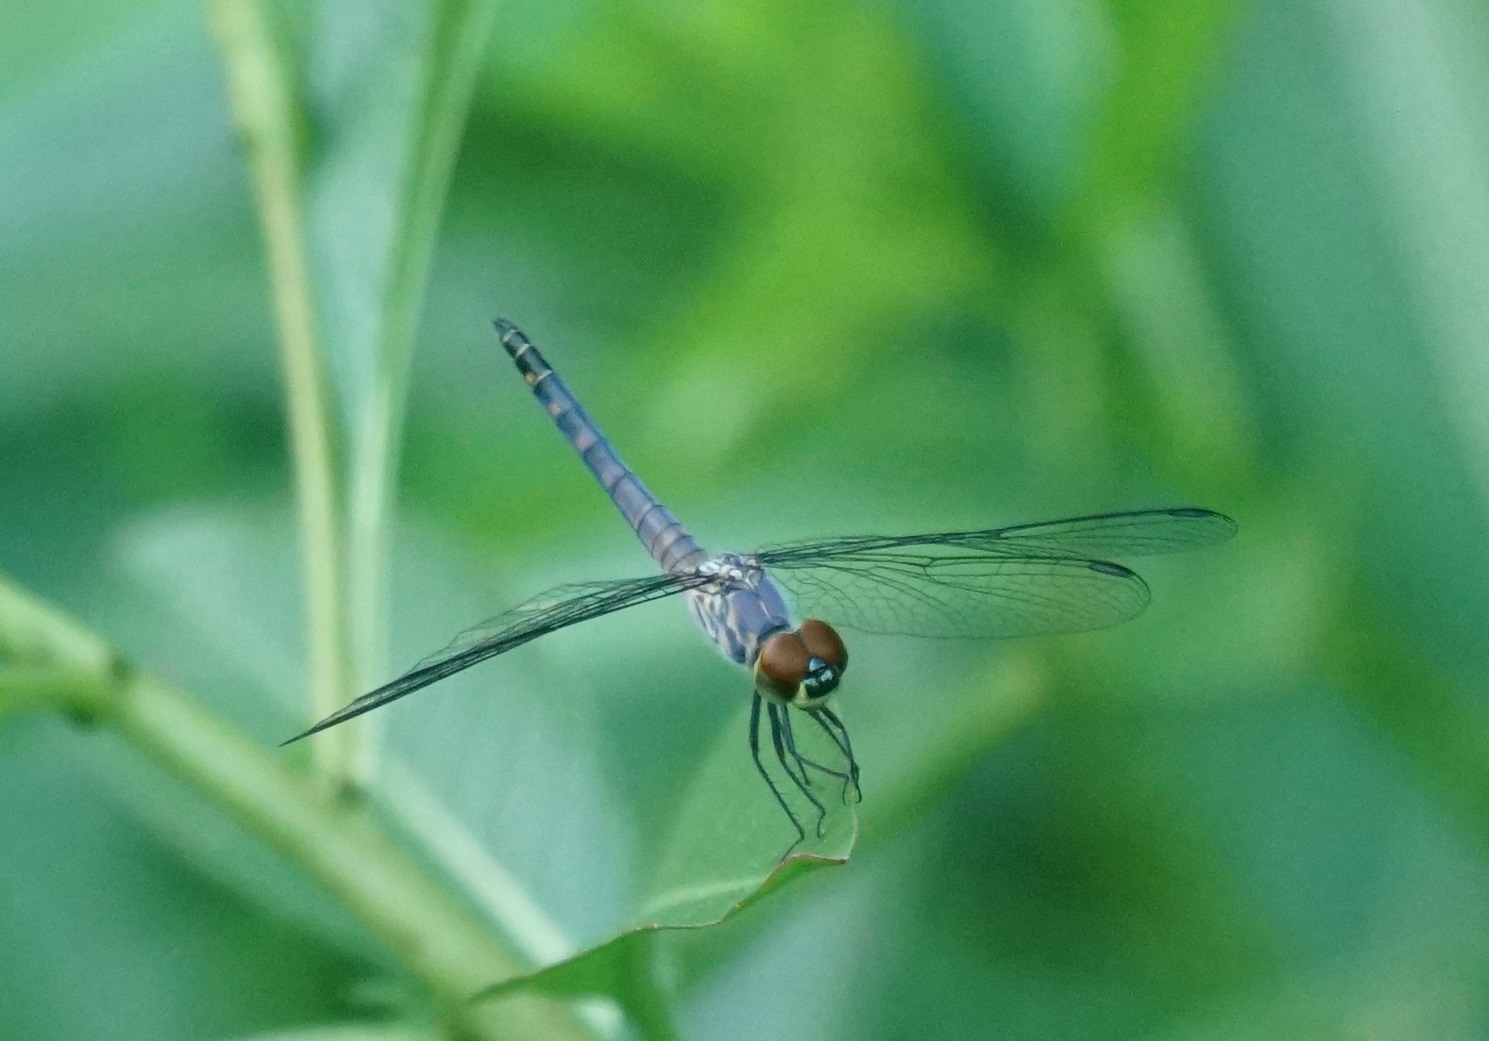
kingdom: Animalia
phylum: Arthropoda
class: Insecta
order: Odonata
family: Libellulidae
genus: Brachydiplax
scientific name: Brachydiplax denticauda
